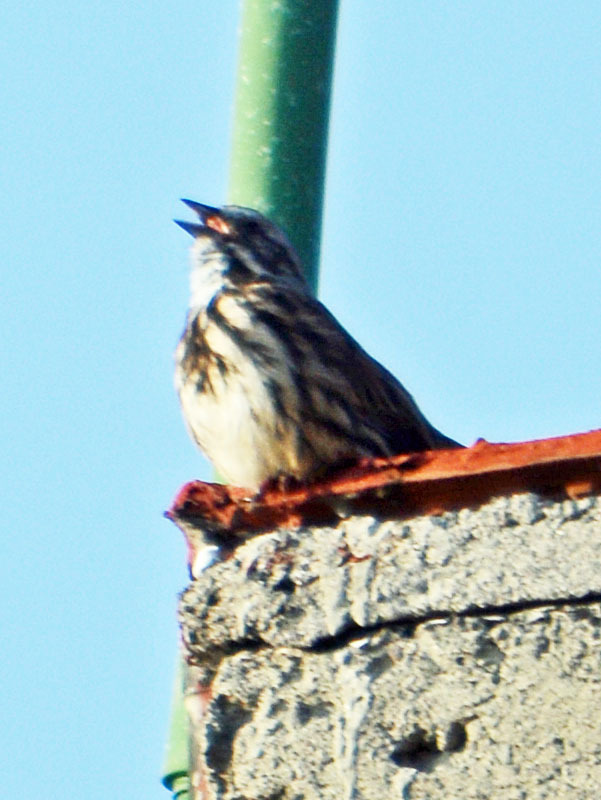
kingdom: Animalia
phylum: Chordata
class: Aves
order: Passeriformes
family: Passerellidae
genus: Melospiza
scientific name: Melospiza melodia
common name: Song sparrow
